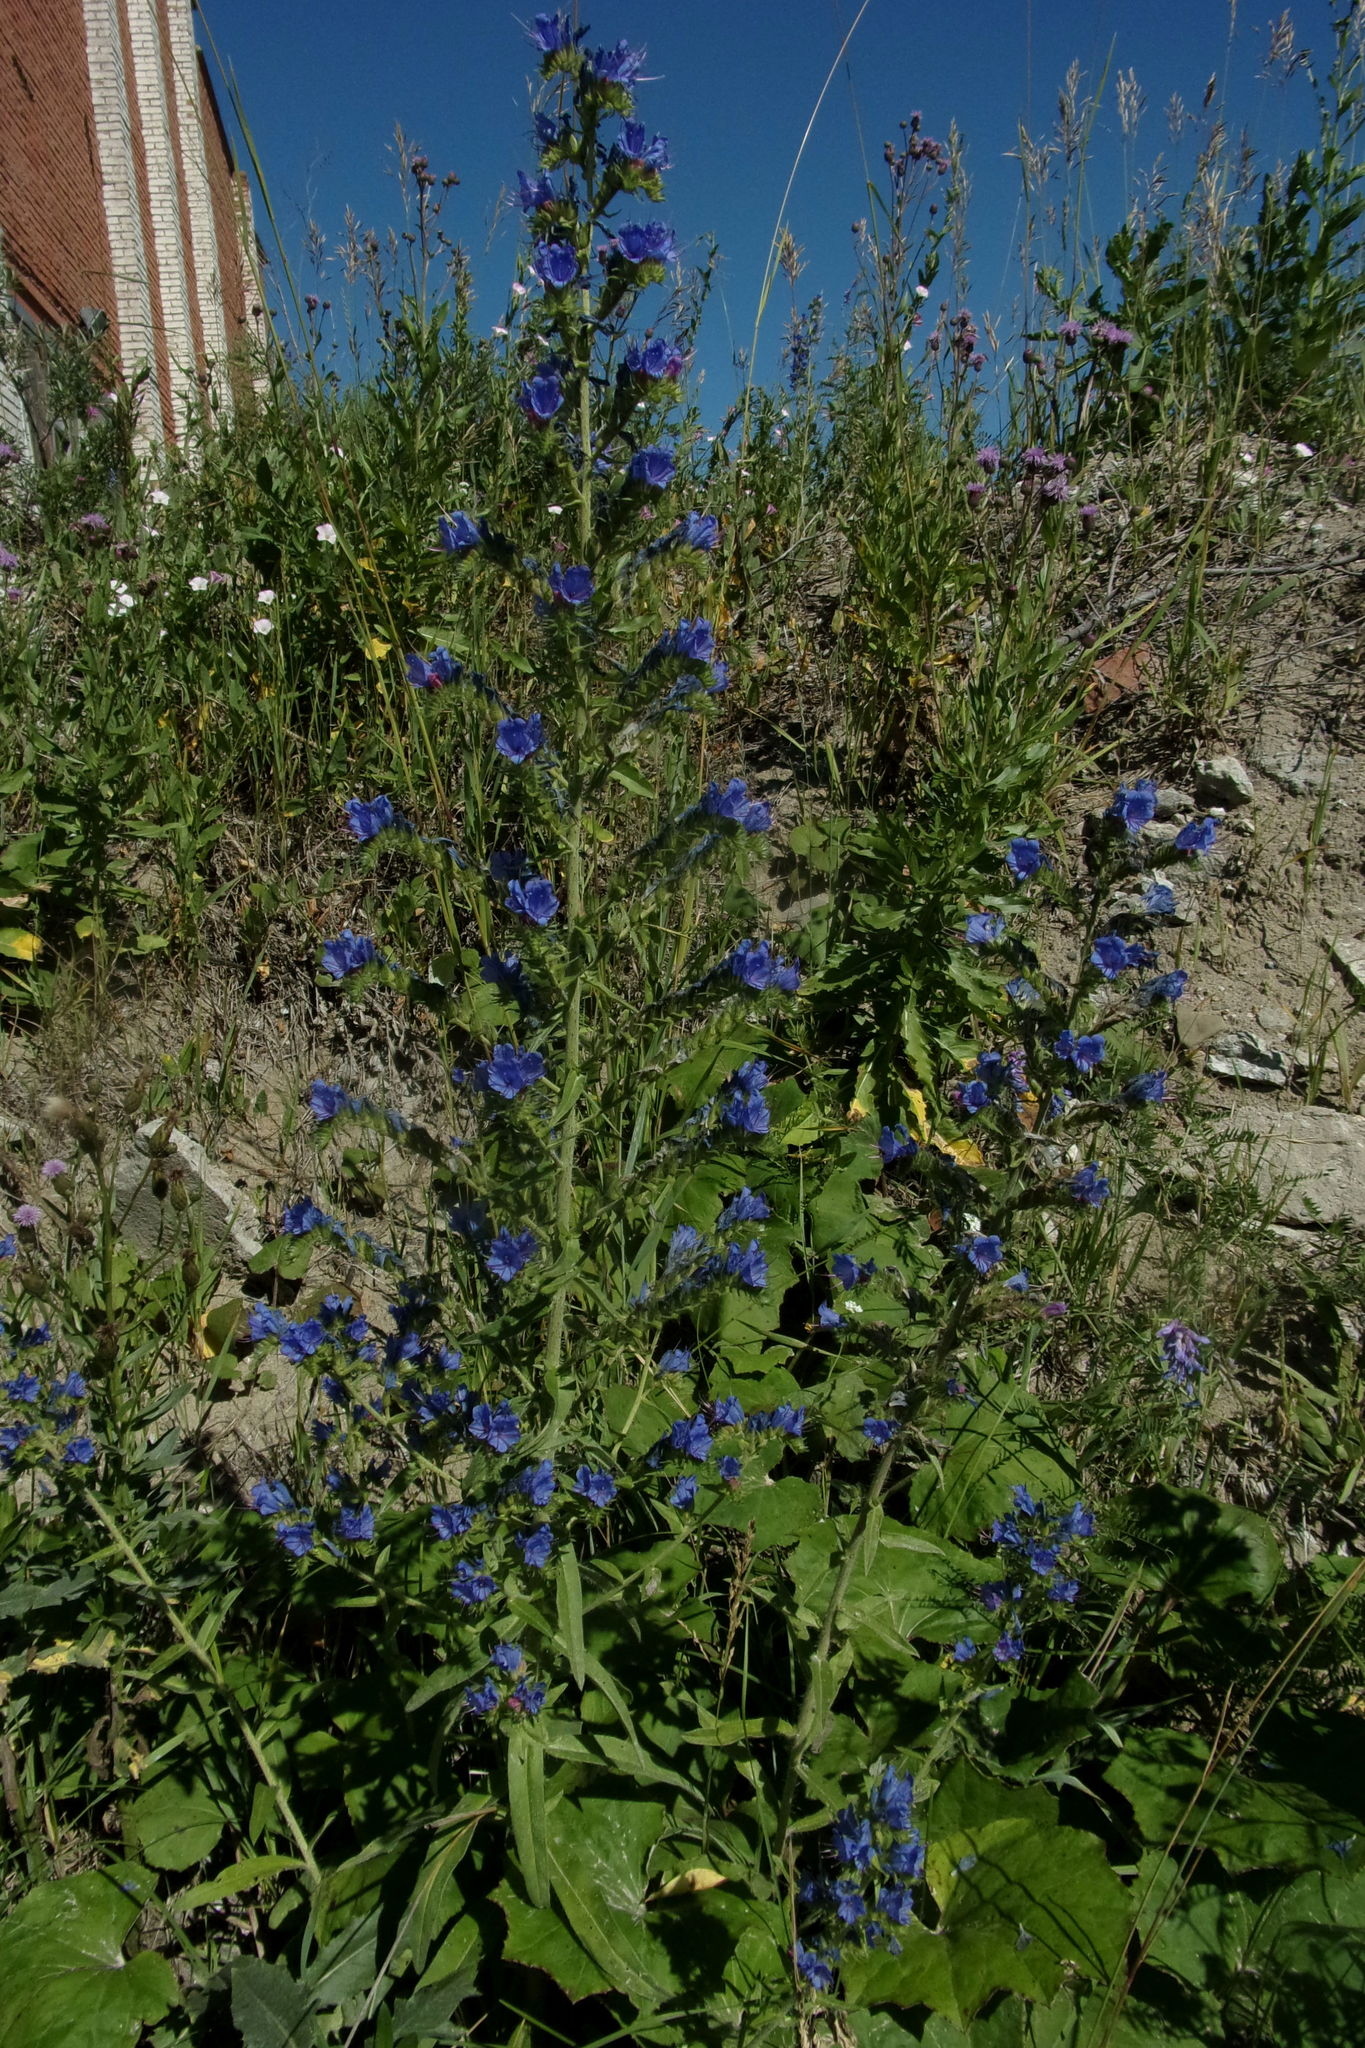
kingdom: Plantae
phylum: Tracheophyta
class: Magnoliopsida
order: Boraginales
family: Boraginaceae
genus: Echium
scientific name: Echium vulgare
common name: Common viper's bugloss
